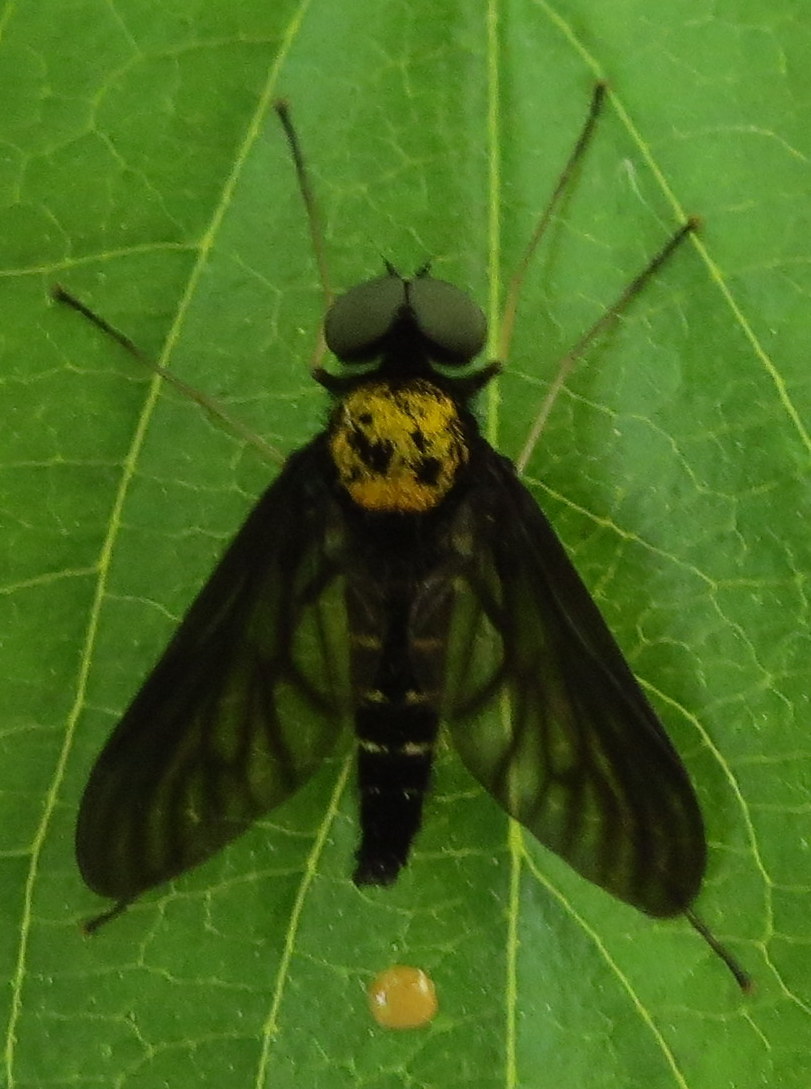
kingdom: Animalia
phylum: Arthropoda
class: Insecta
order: Diptera
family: Rhagionidae
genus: Chrysopilus
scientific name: Chrysopilus thoracicus
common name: Golden-backed snipe fly
